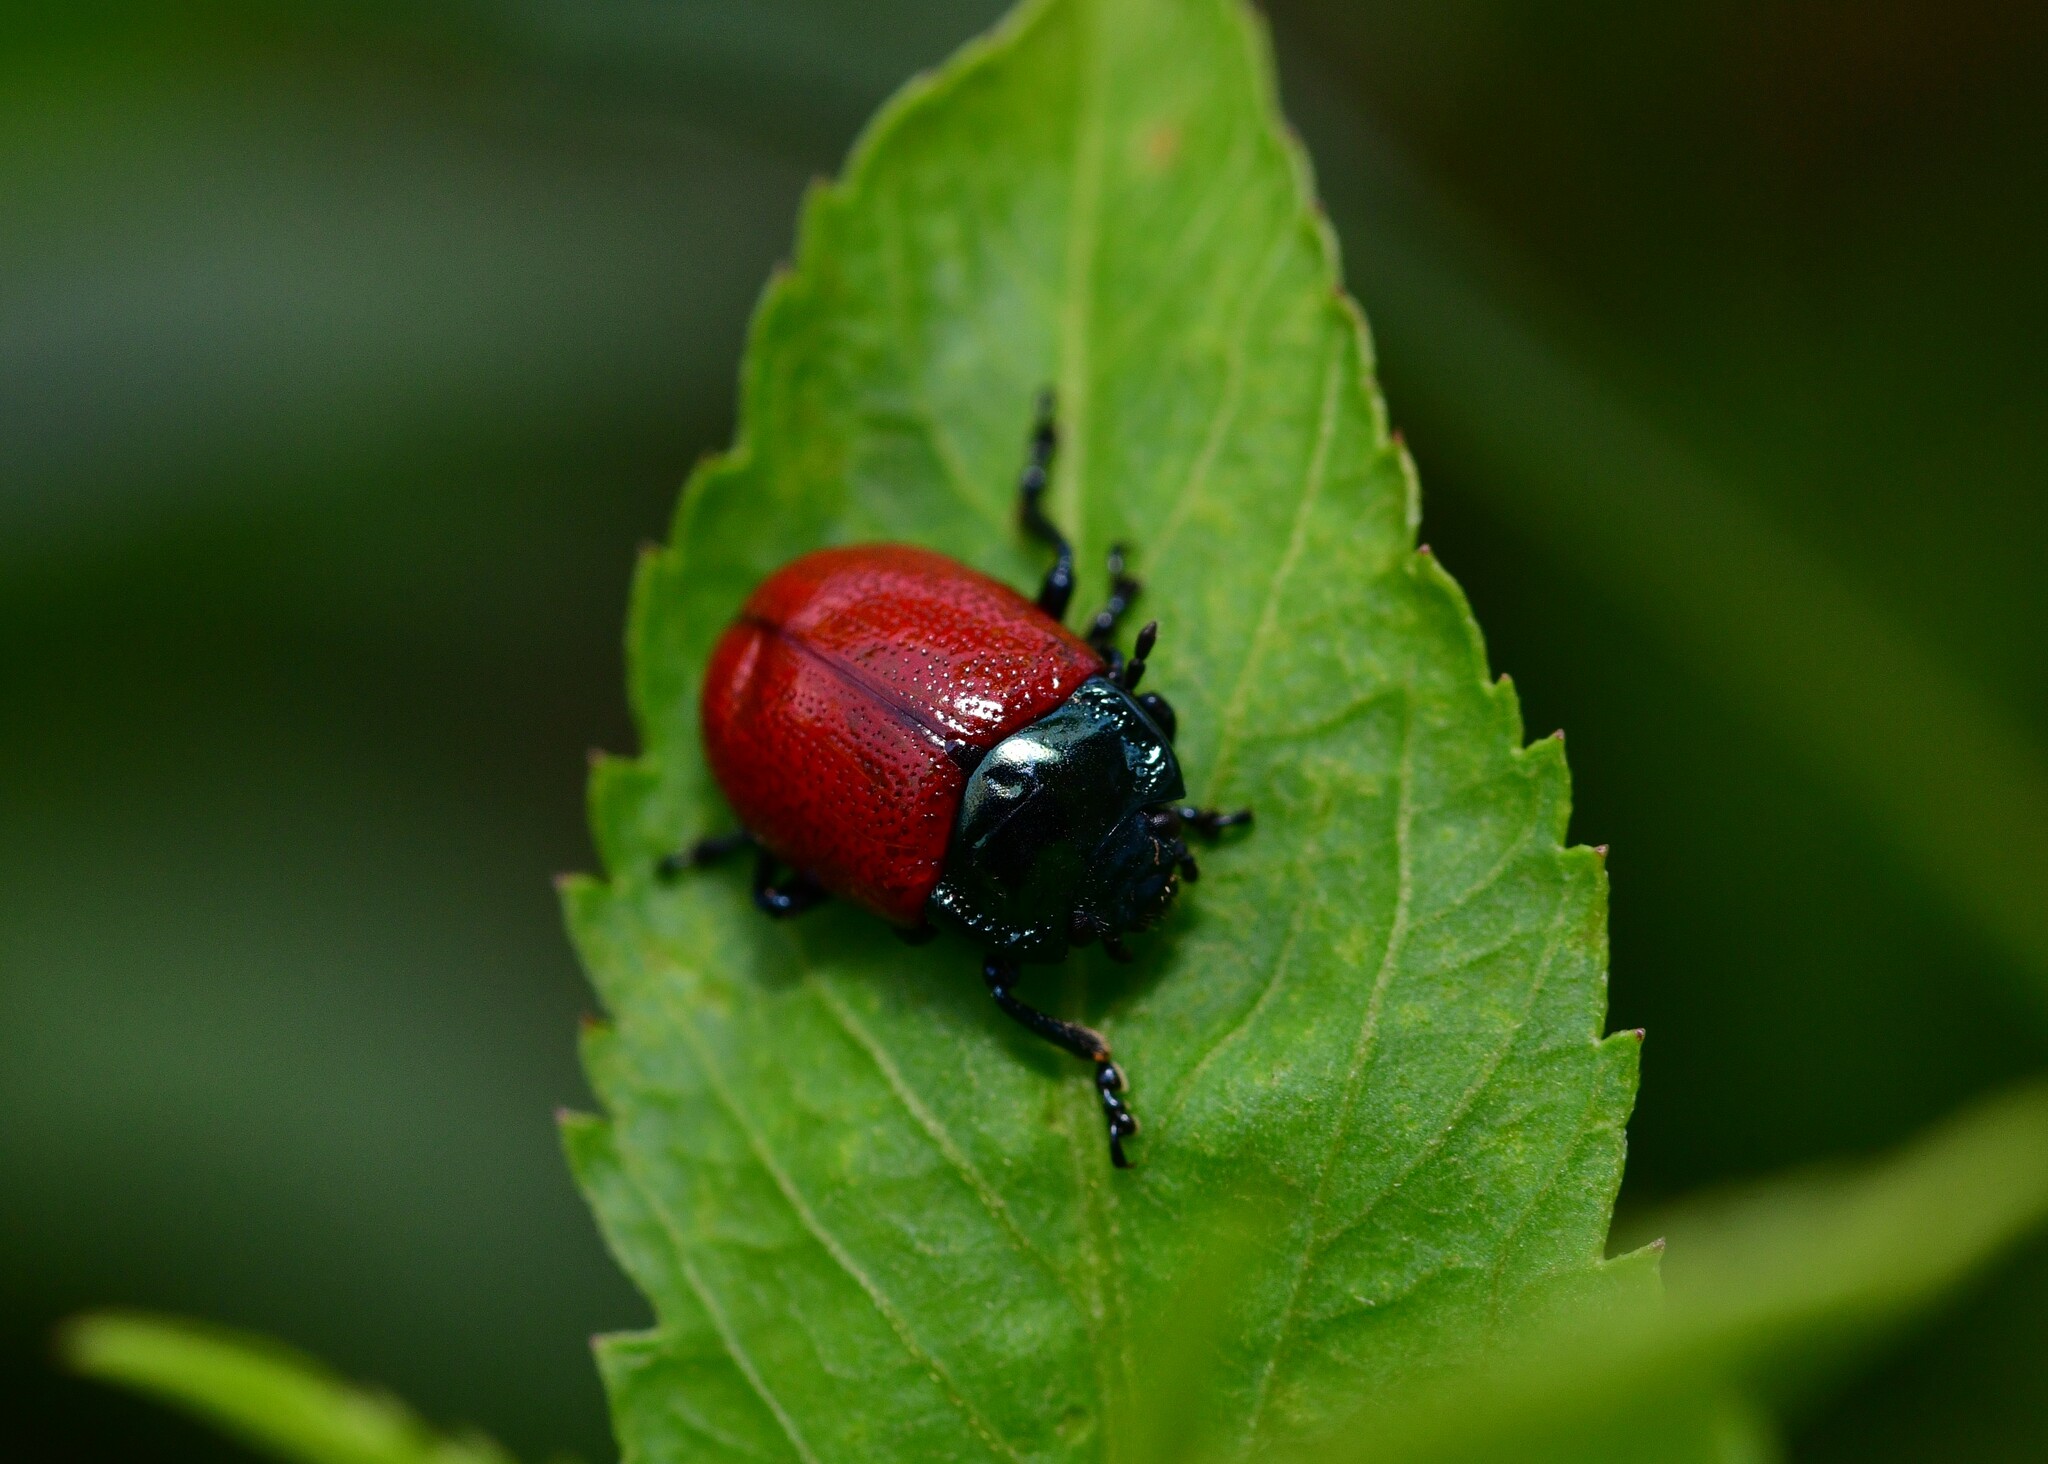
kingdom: Animalia
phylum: Arthropoda
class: Insecta
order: Coleoptera
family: Chrysomelidae
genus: Chrysolina
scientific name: Chrysolina lucida
